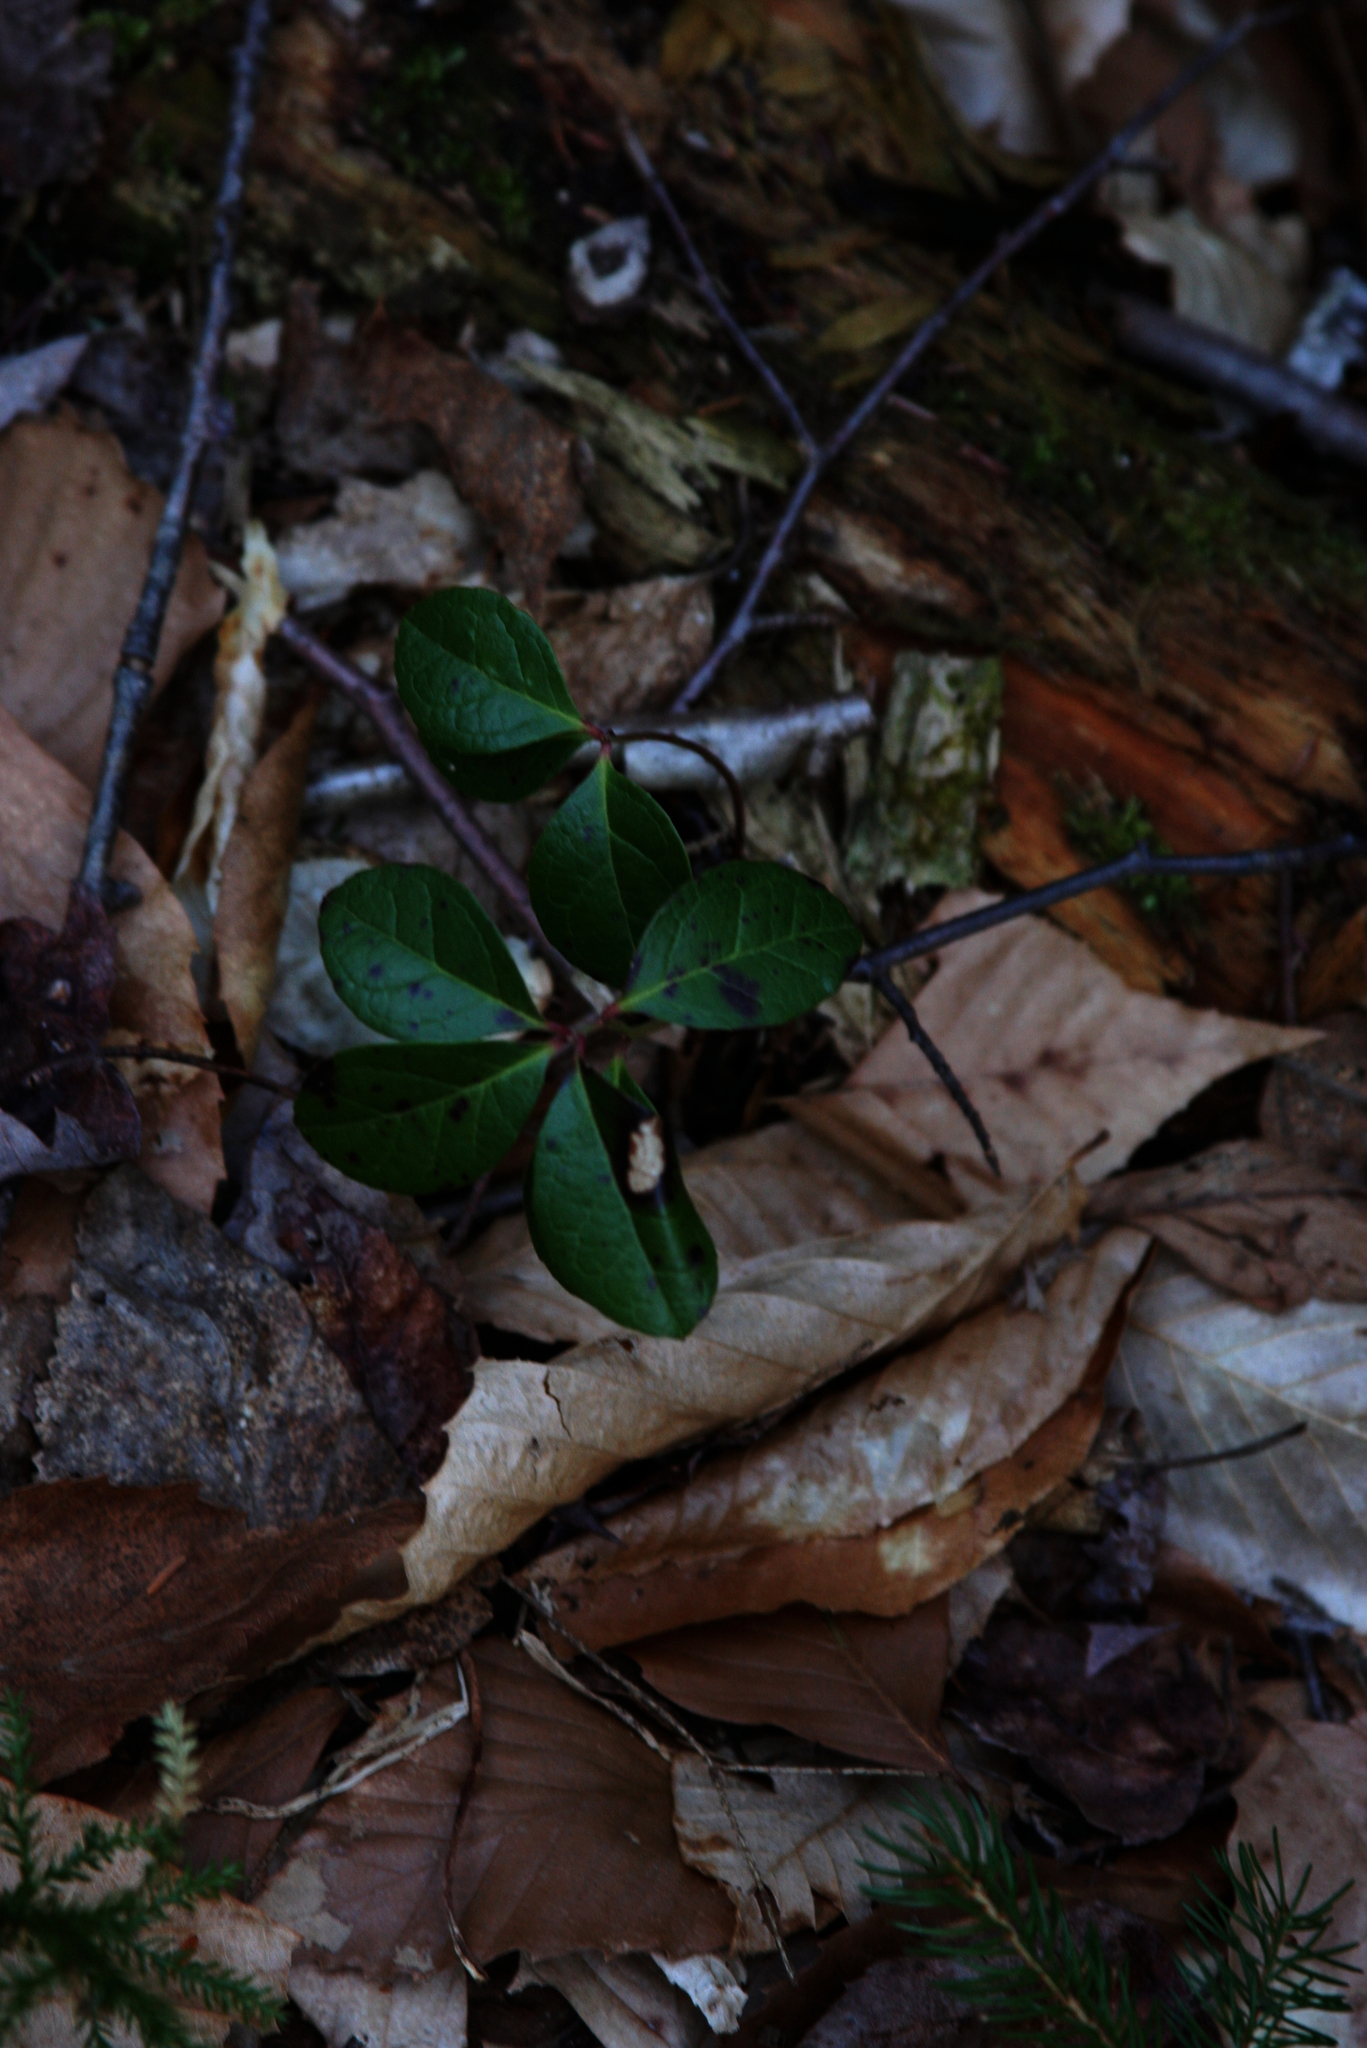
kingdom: Plantae
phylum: Tracheophyta
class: Magnoliopsida
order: Ericales
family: Ericaceae
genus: Gaultheria
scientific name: Gaultheria procumbens
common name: Checkerberry
